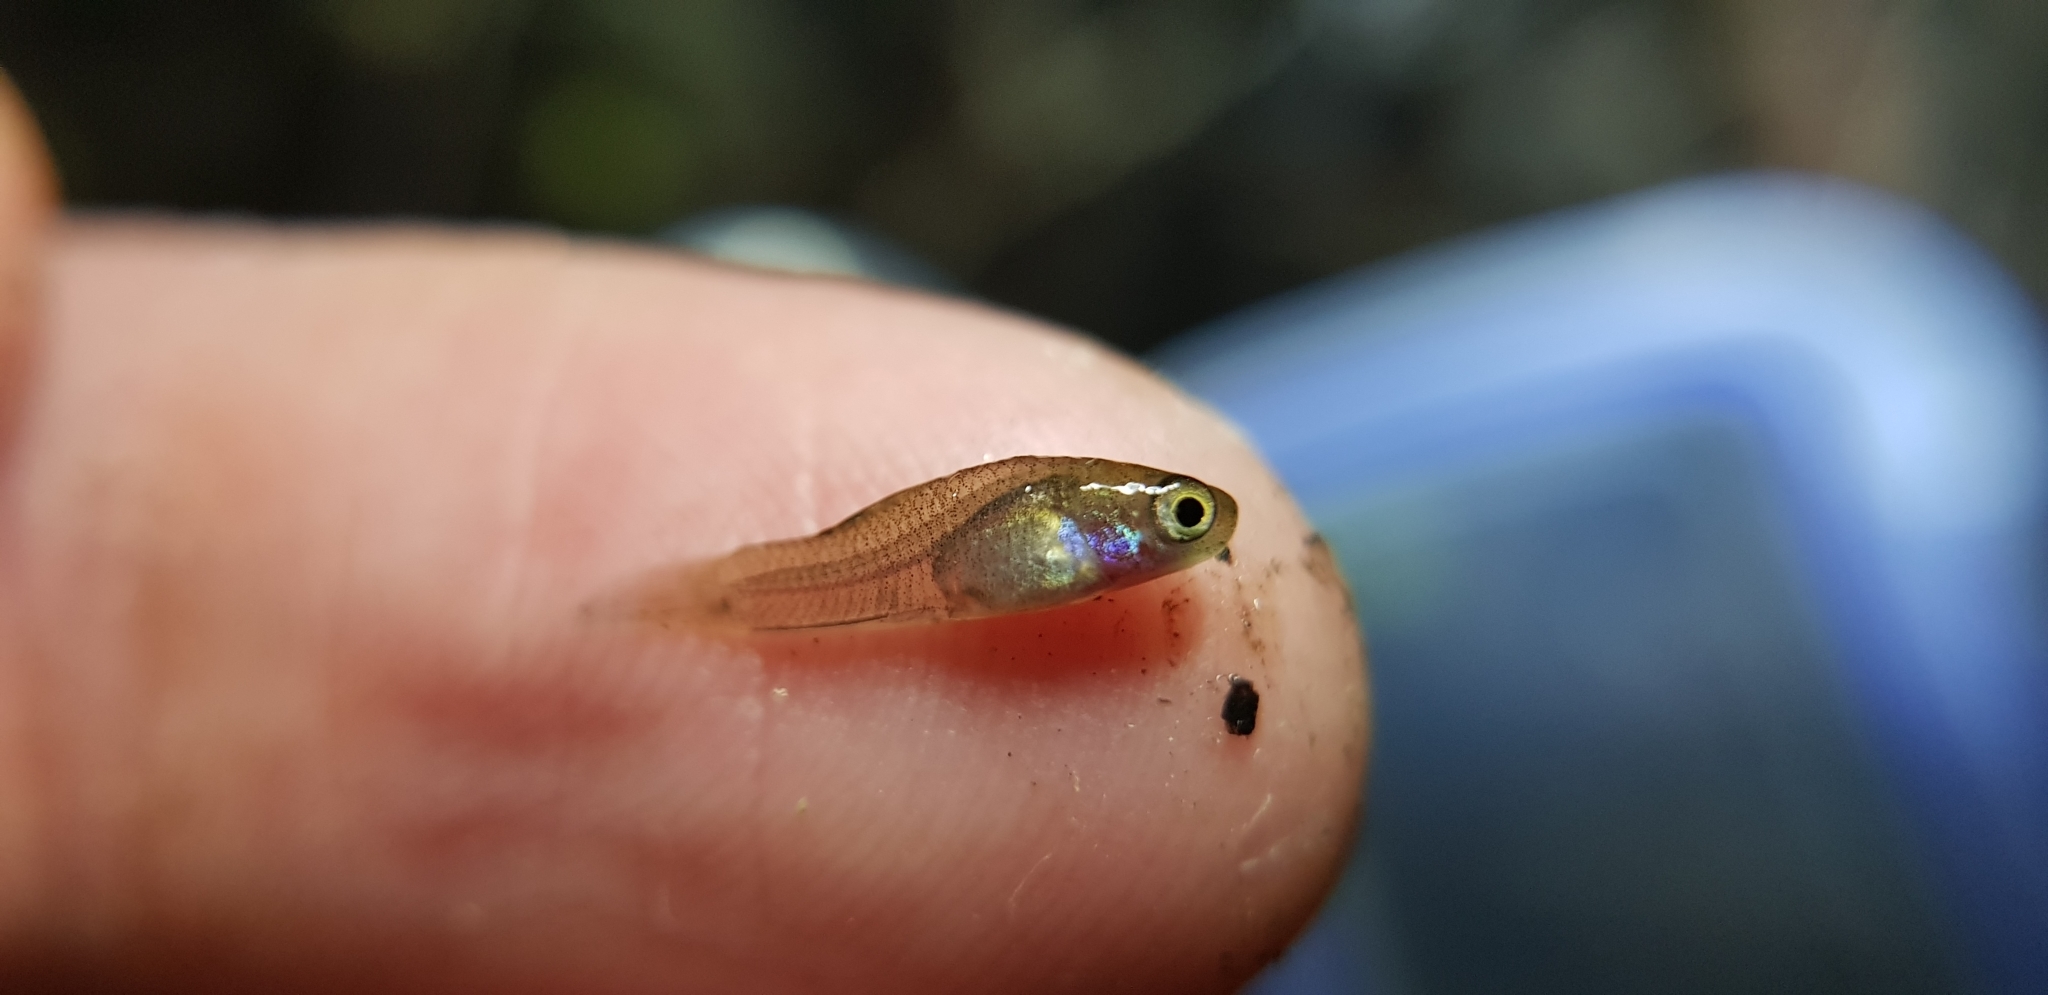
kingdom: Animalia
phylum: Chordata
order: Cyprinodontiformes
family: Poeciliidae
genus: Xiphophorus
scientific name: Xiphophorus hellerii
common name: Green swordtail
